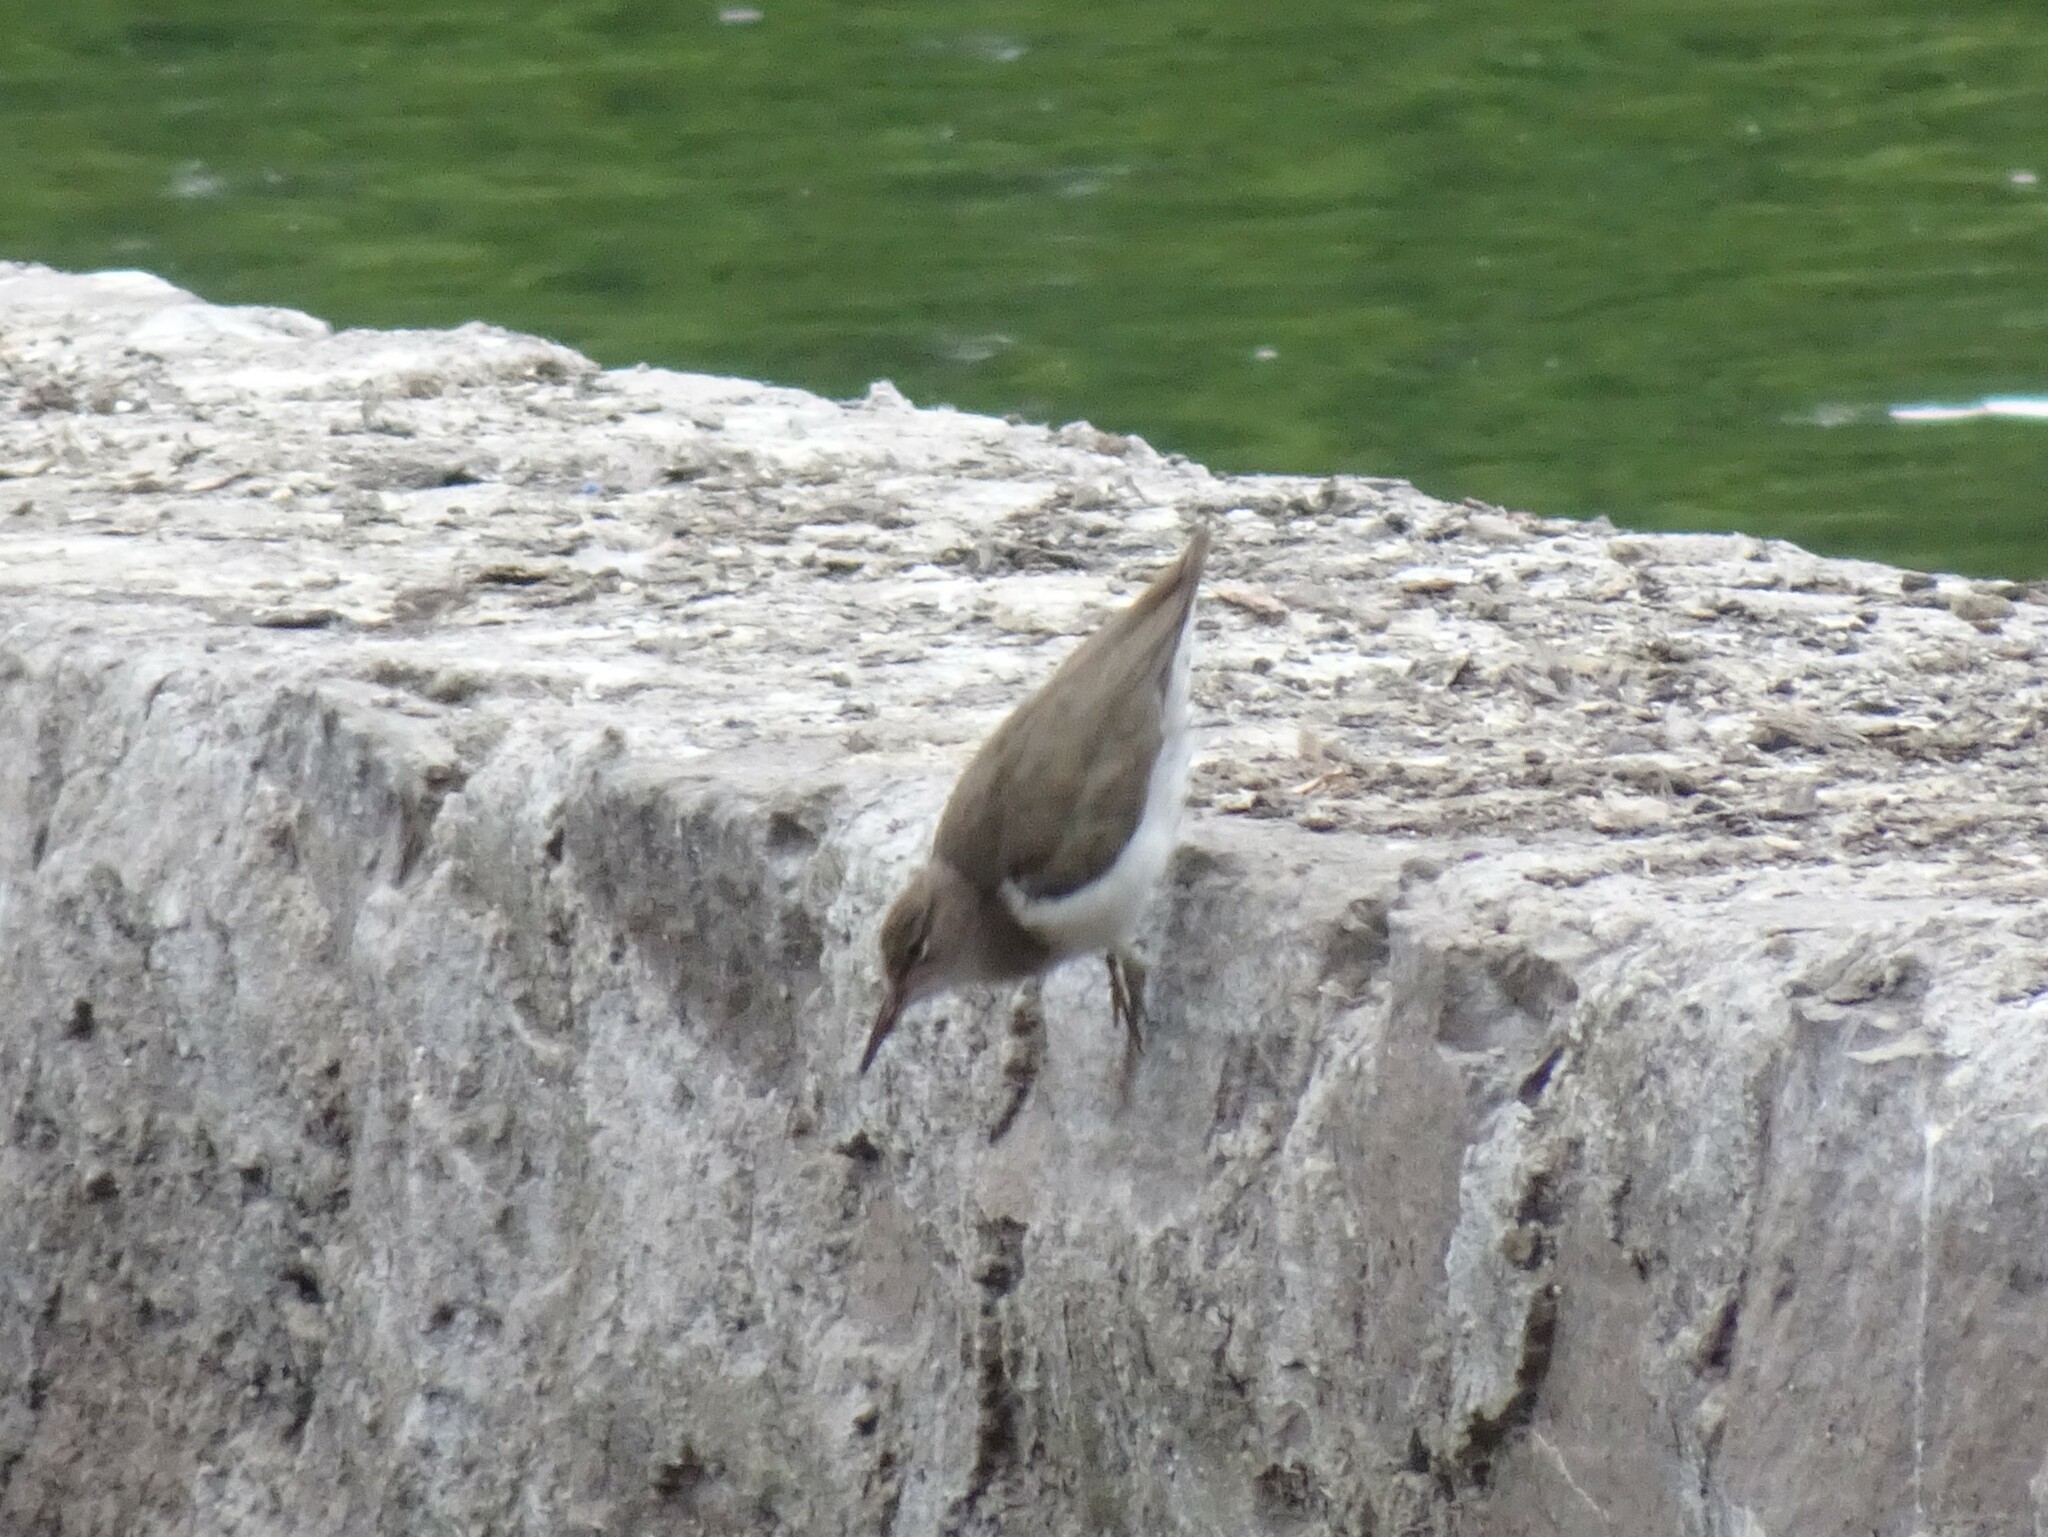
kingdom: Animalia
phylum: Chordata
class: Aves
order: Charadriiformes
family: Scolopacidae
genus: Actitis
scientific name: Actitis macularius
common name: Spotted sandpiper
